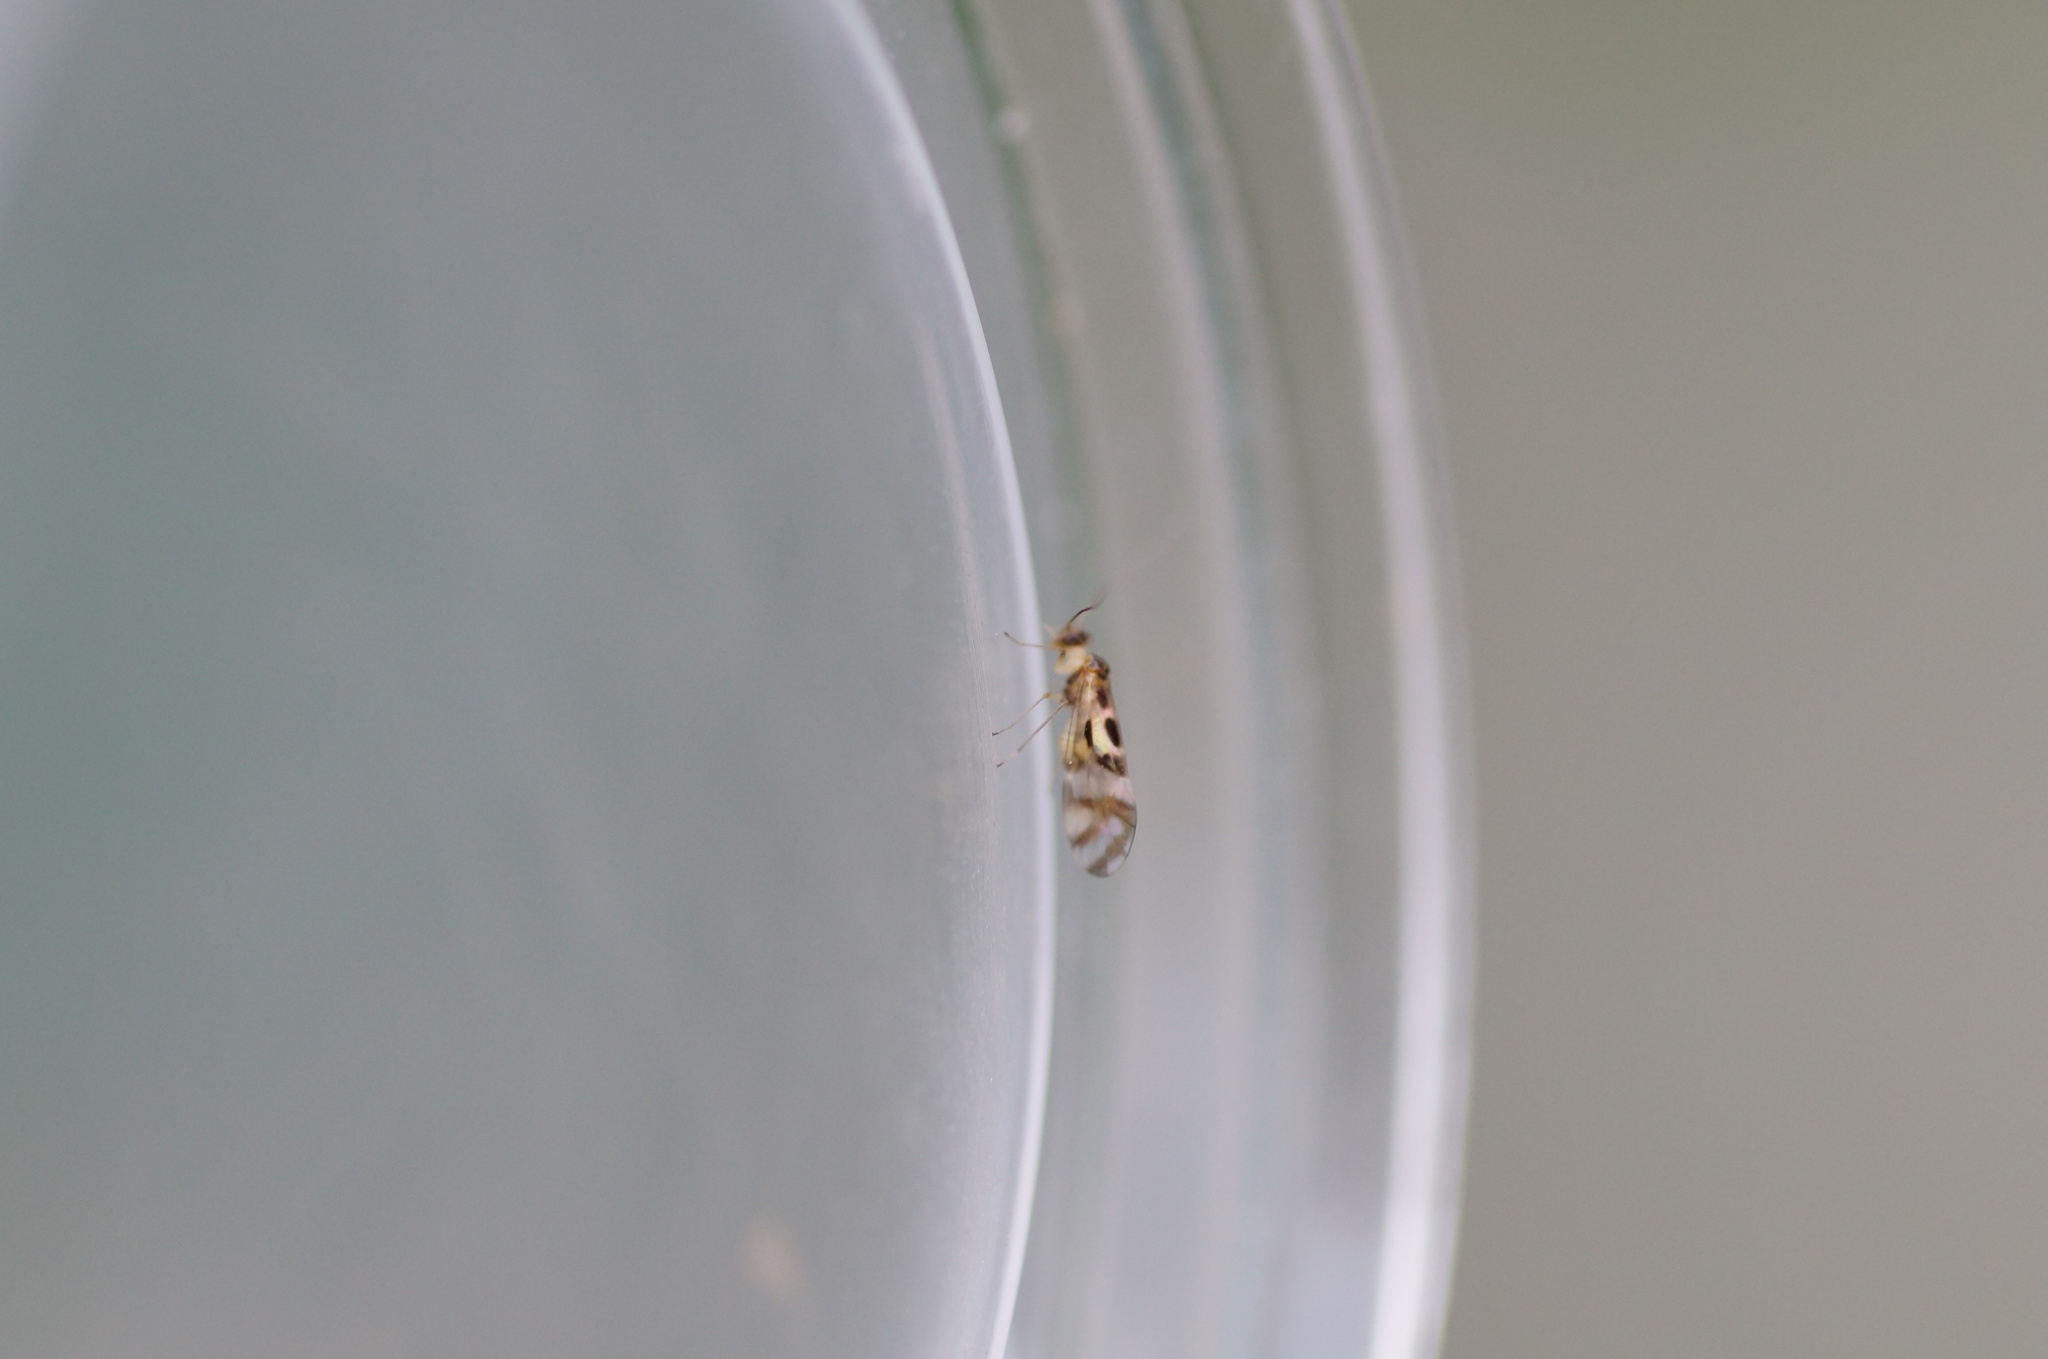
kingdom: Animalia
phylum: Arthropoda
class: Insecta
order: Psocodea
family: Stenopsocidae
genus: Graphopsocus
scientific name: Graphopsocus cruciatus
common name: Lizard bark louse
